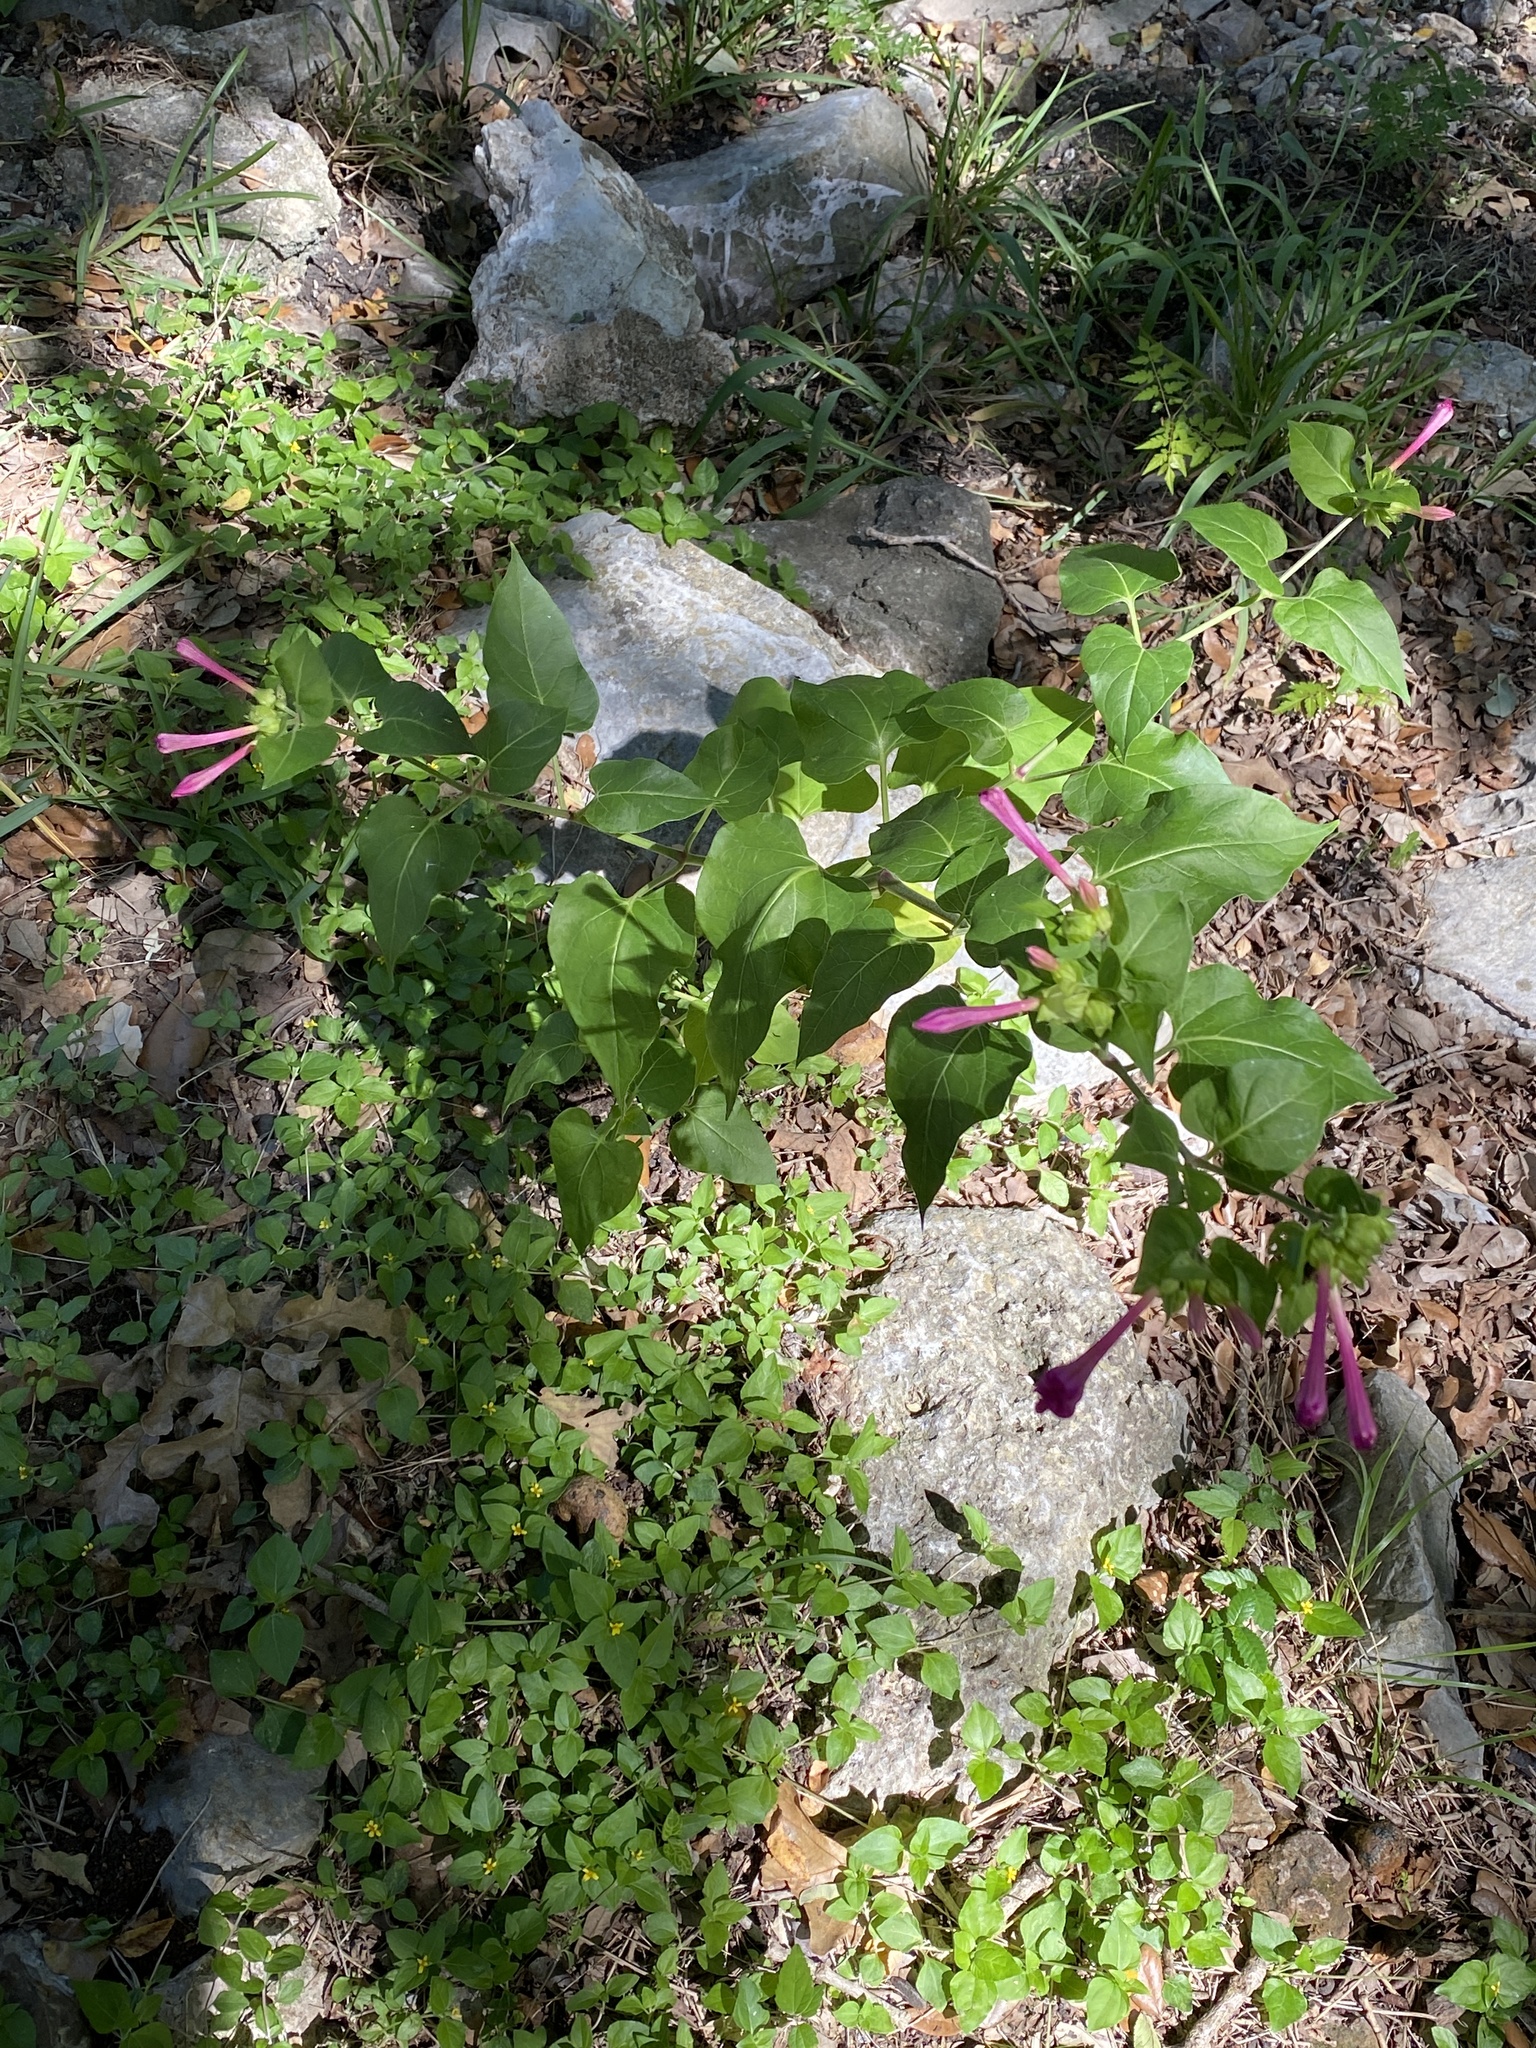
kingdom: Plantae
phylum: Tracheophyta
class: Magnoliopsida
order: Caryophyllales
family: Nyctaginaceae
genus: Mirabilis
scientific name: Mirabilis jalapa
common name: Marvel-of-peru
